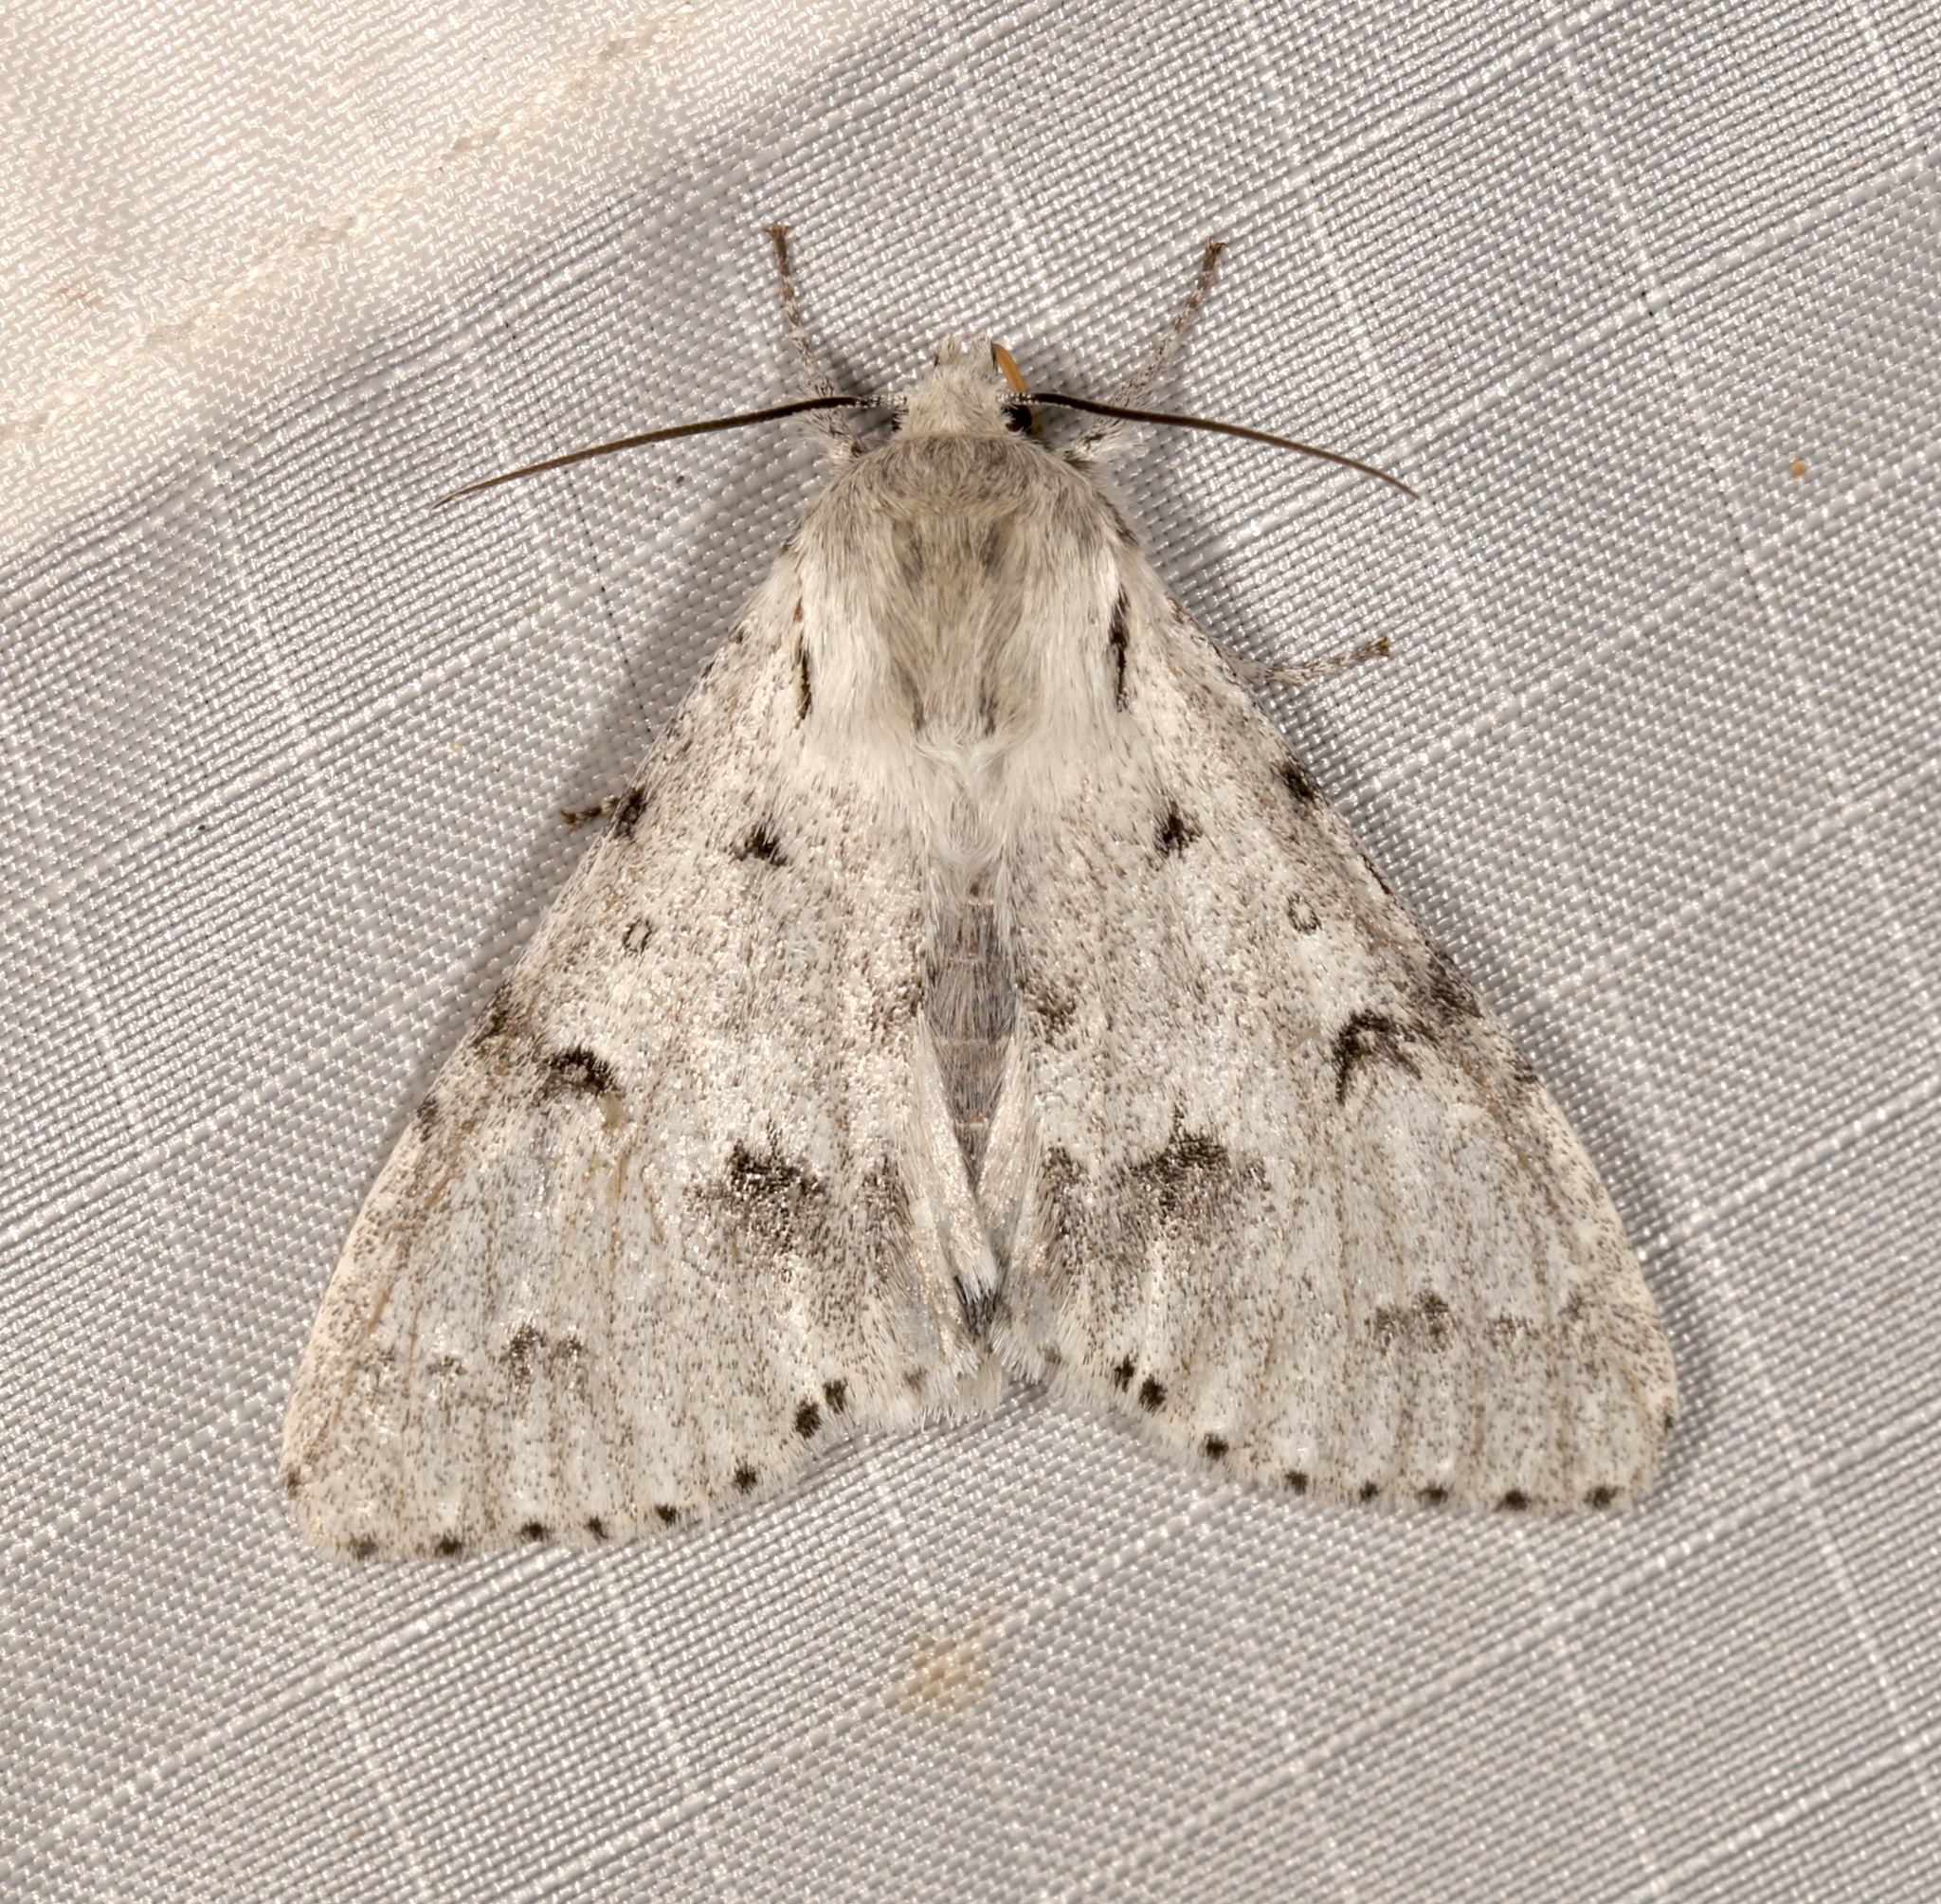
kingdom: Animalia
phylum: Arthropoda
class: Insecta
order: Lepidoptera
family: Noctuidae
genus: Acronicta
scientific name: Acronicta vulpina
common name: Miller dagger
